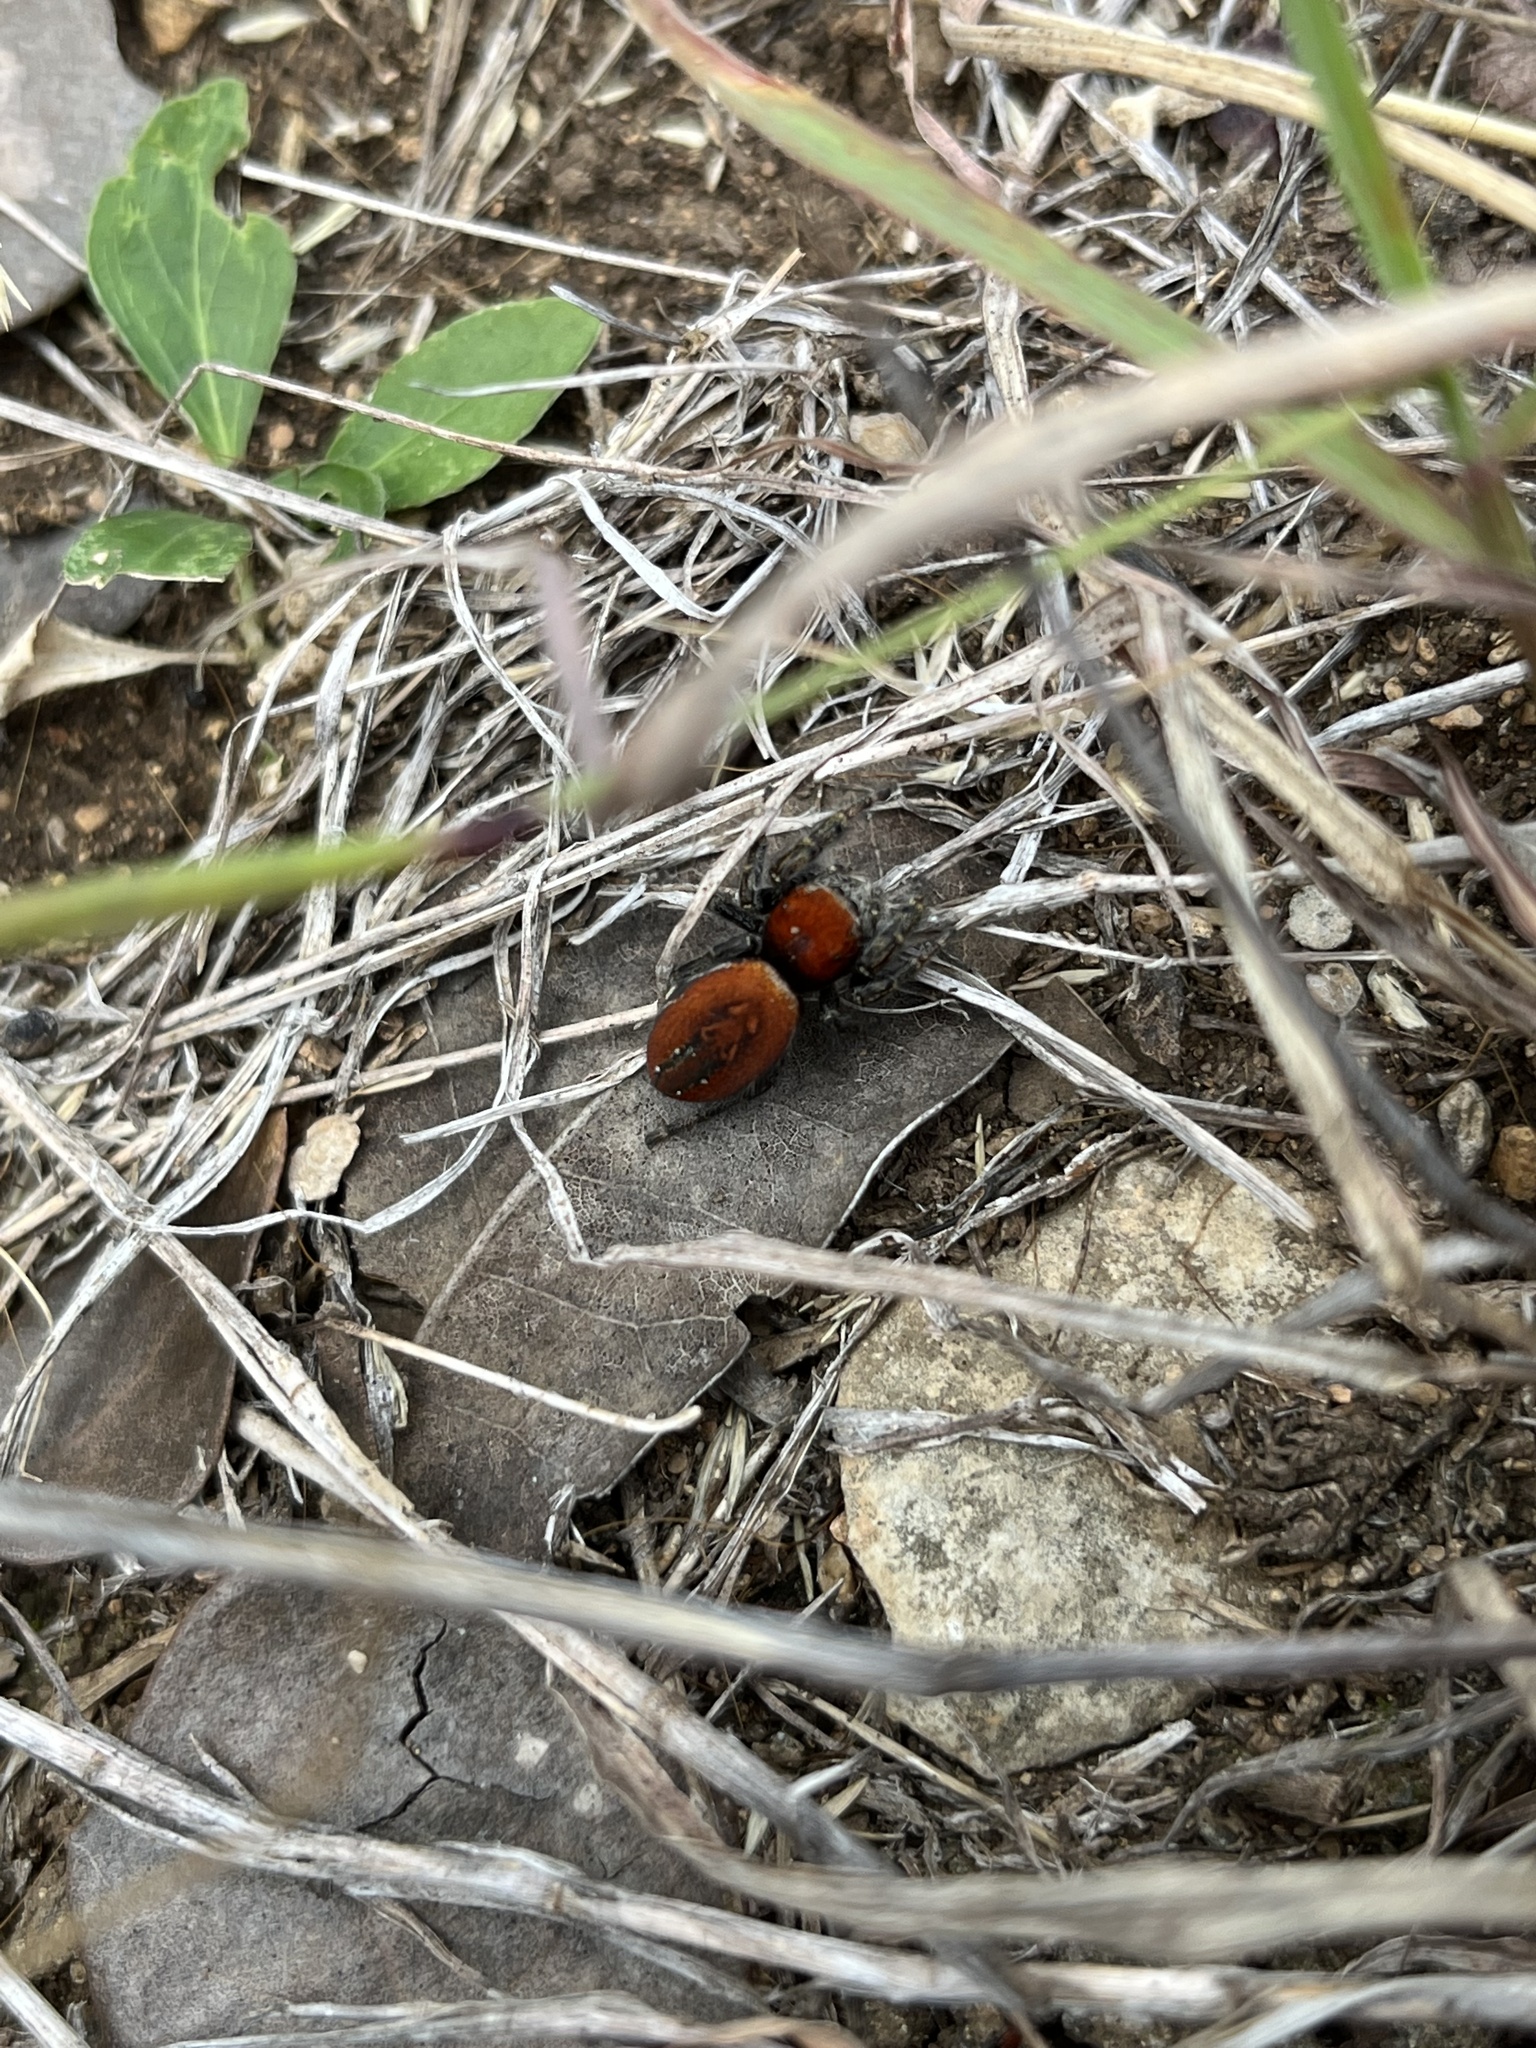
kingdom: Animalia
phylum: Arthropoda
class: Arachnida
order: Araneae
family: Salticidae
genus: Phidippus
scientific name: Phidippus cardinalis
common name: Cardinal jumper
